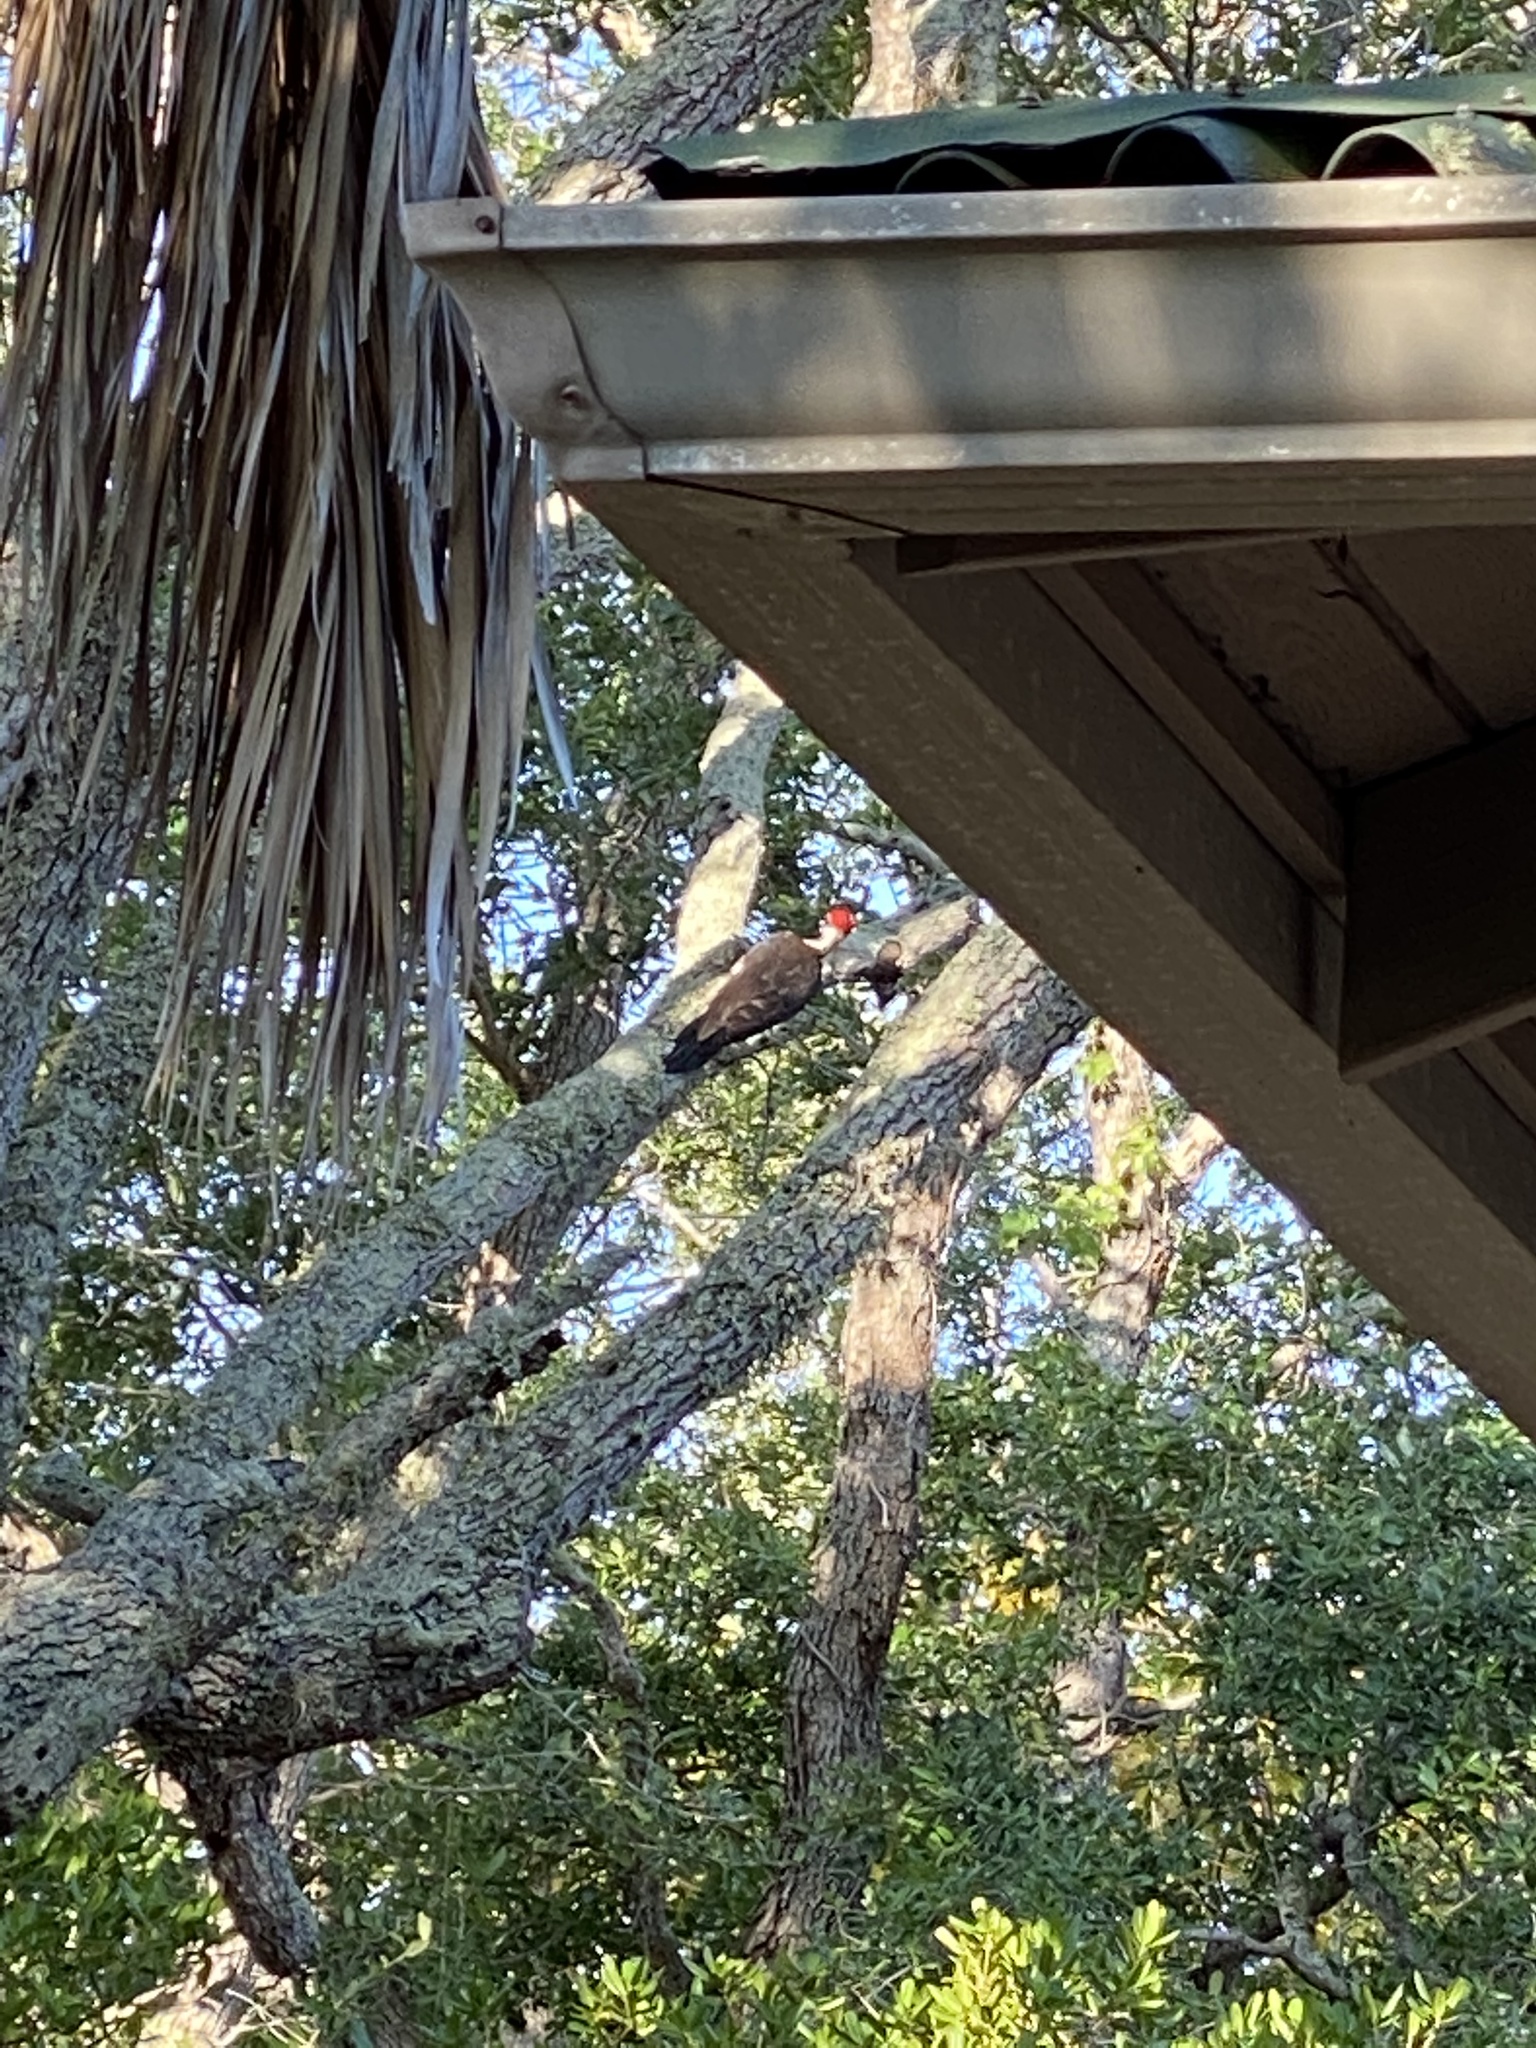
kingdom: Animalia
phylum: Chordata
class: Aves
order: Piciformes
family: Picidae
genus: Dryocopus
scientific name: Dryocopus pileatus
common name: Pileated woodpecker
